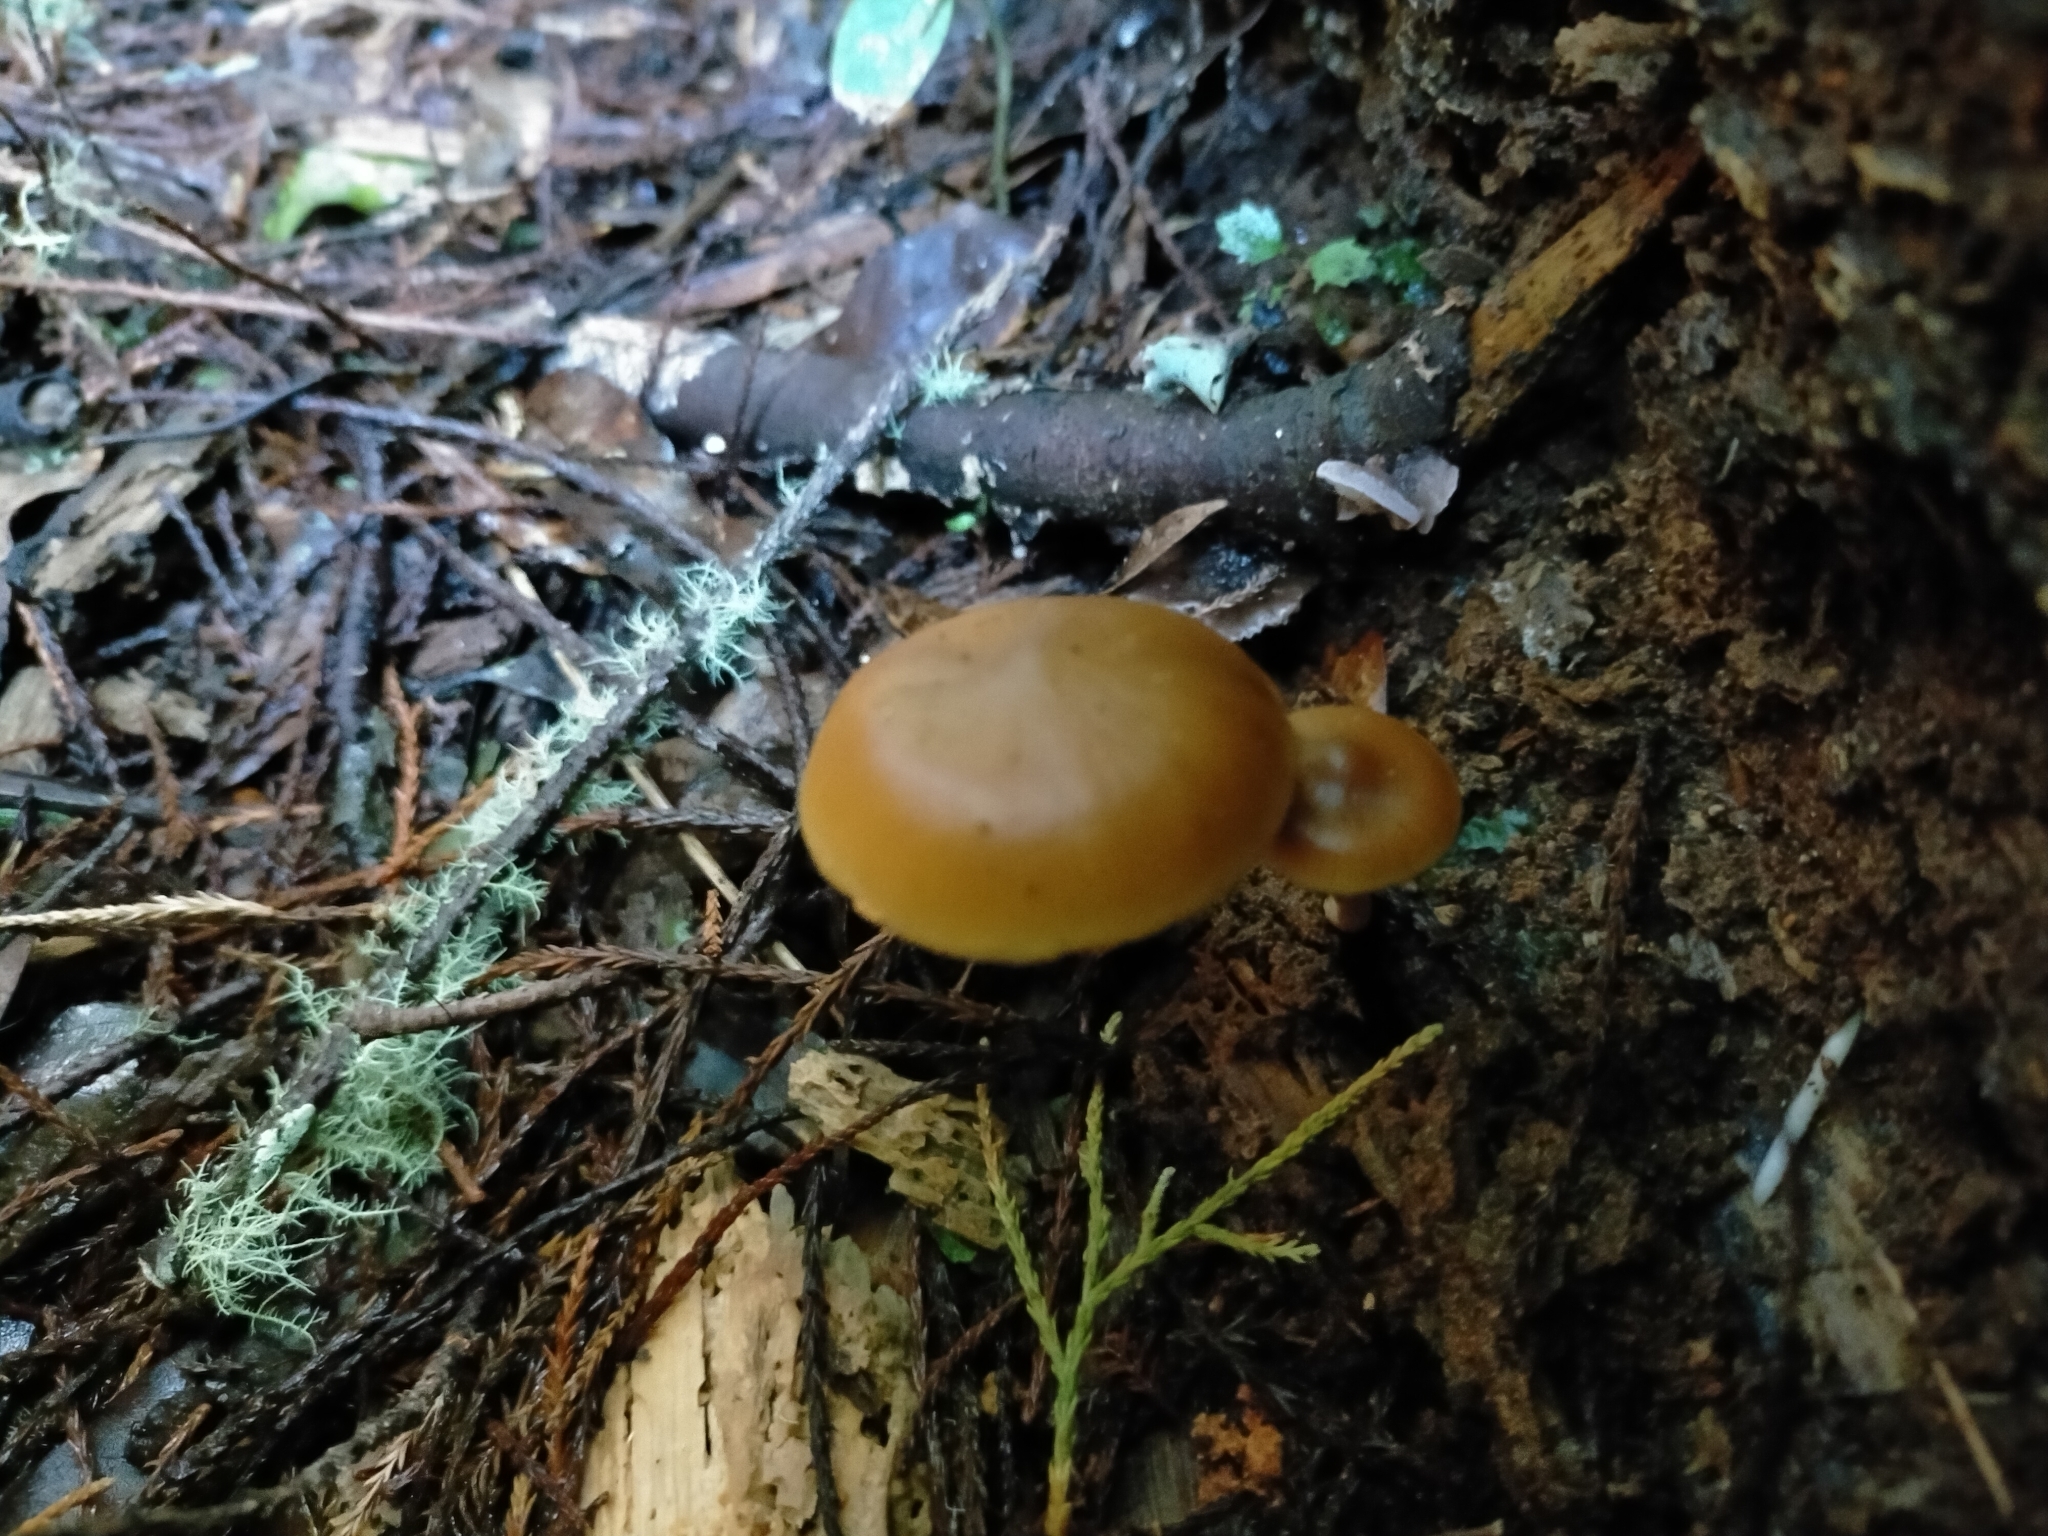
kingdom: Fungi
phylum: Basidiomycota
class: Agaricomycetes
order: Agaricales
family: Hymenogastraceae
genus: Galerina
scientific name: Galerina patagonica
